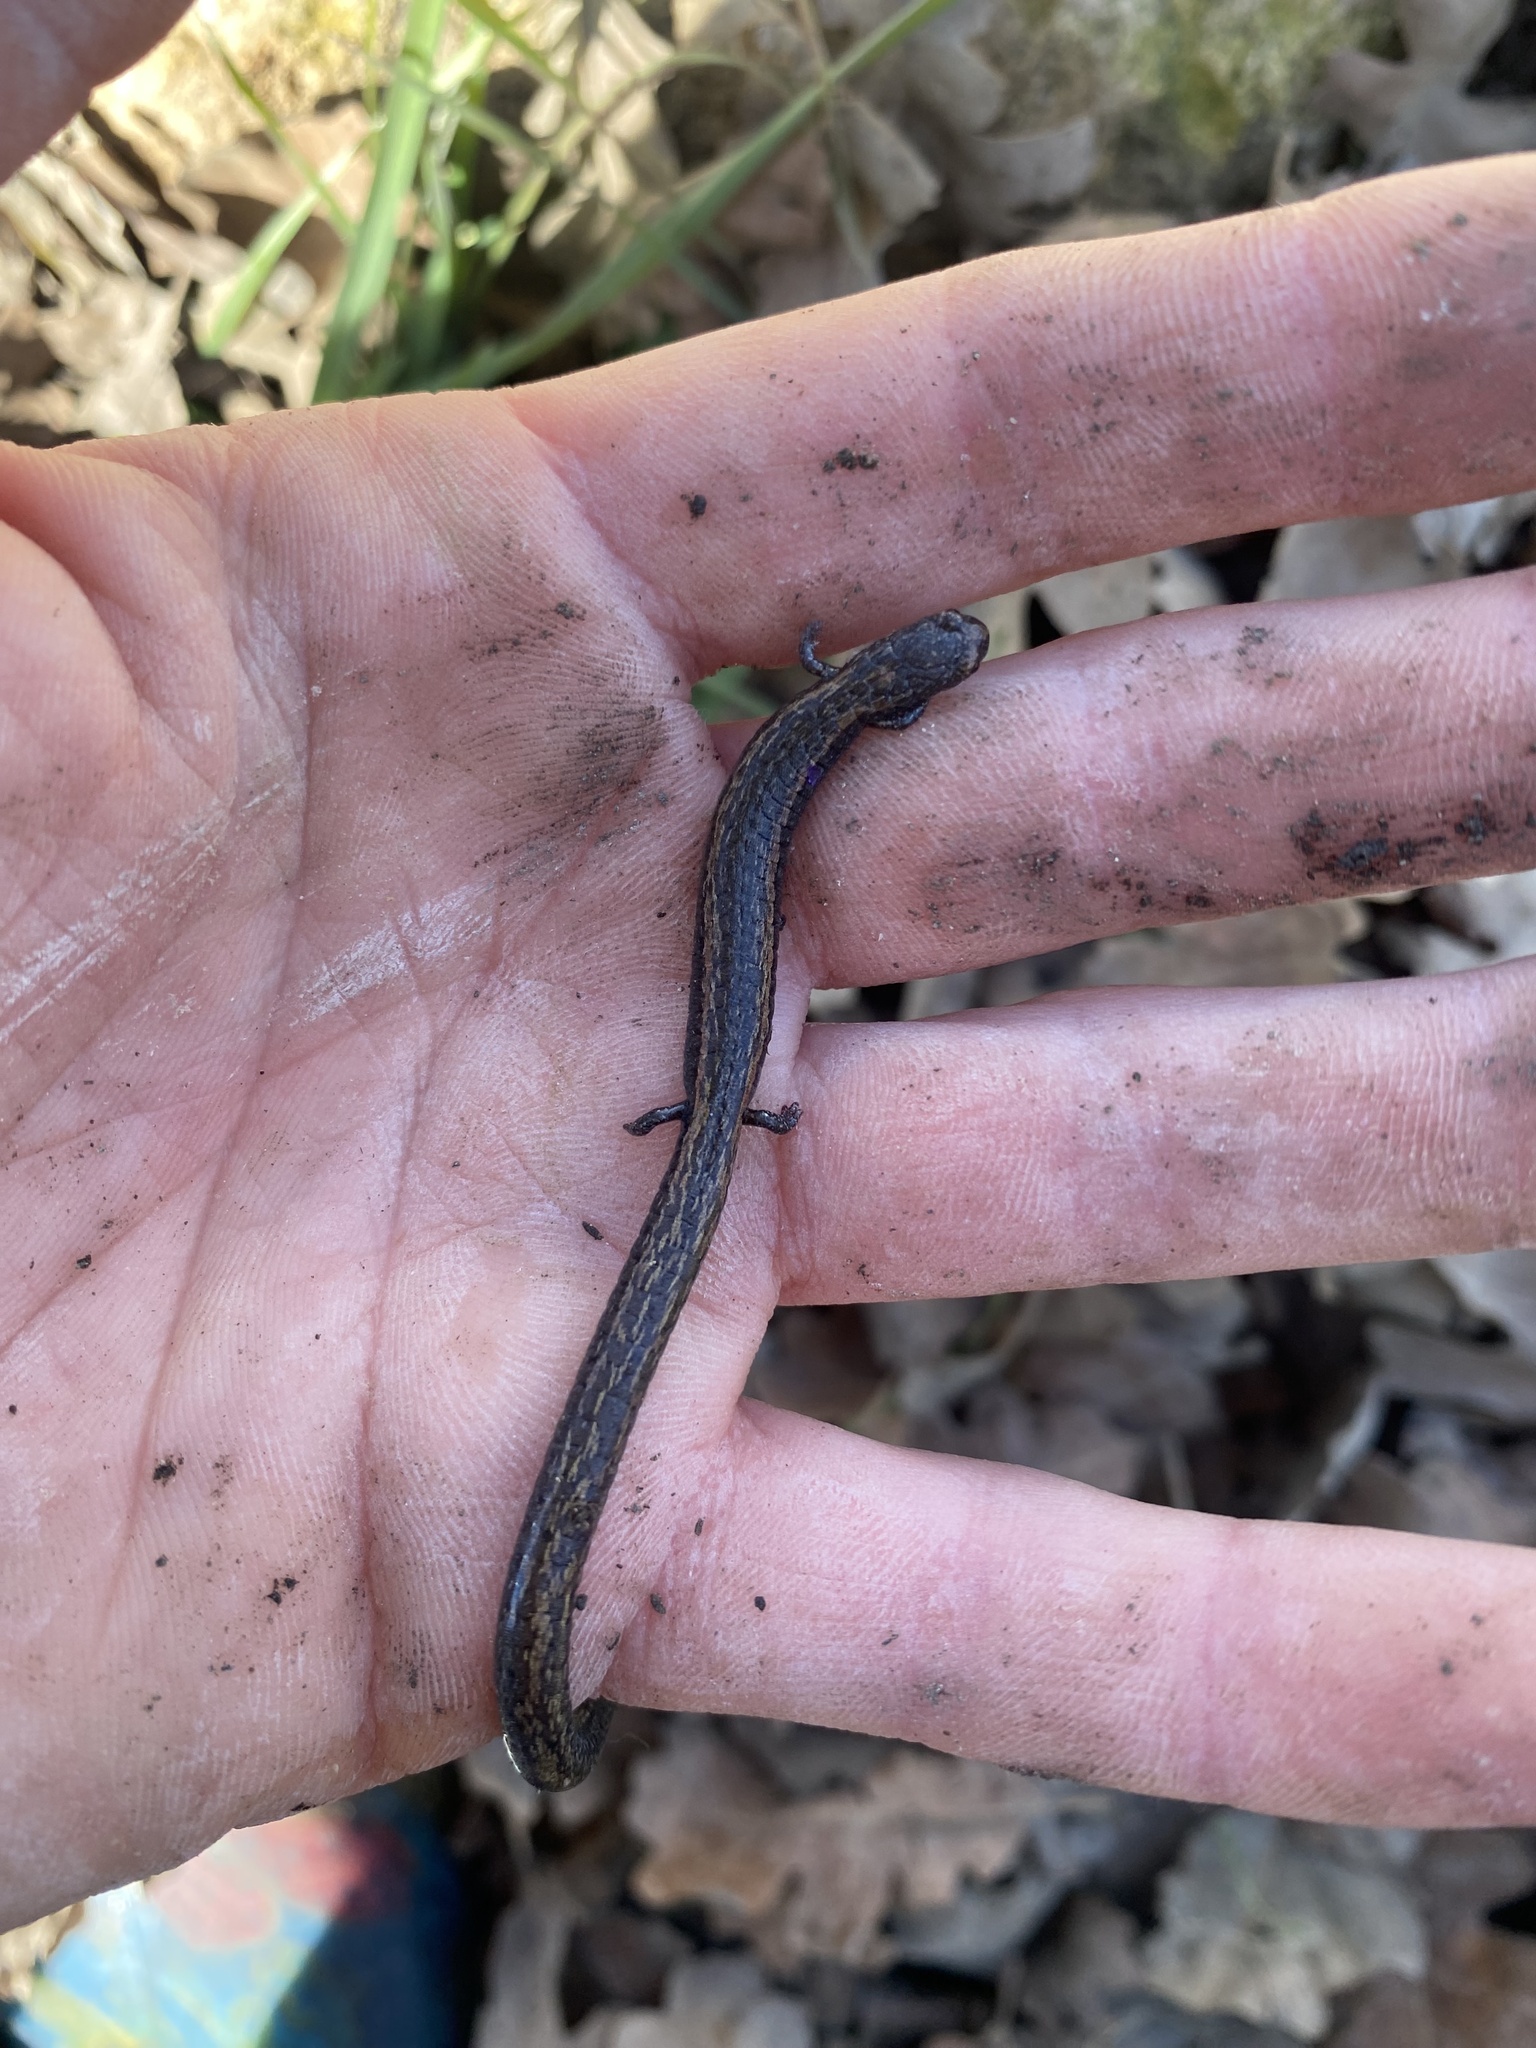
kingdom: Animalia
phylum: Chordata
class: Amphibia
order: Caudata
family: Plethodontidae
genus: Batrachoseps
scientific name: Batrachoseps nigriventris
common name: Black-bellied slender salamander
